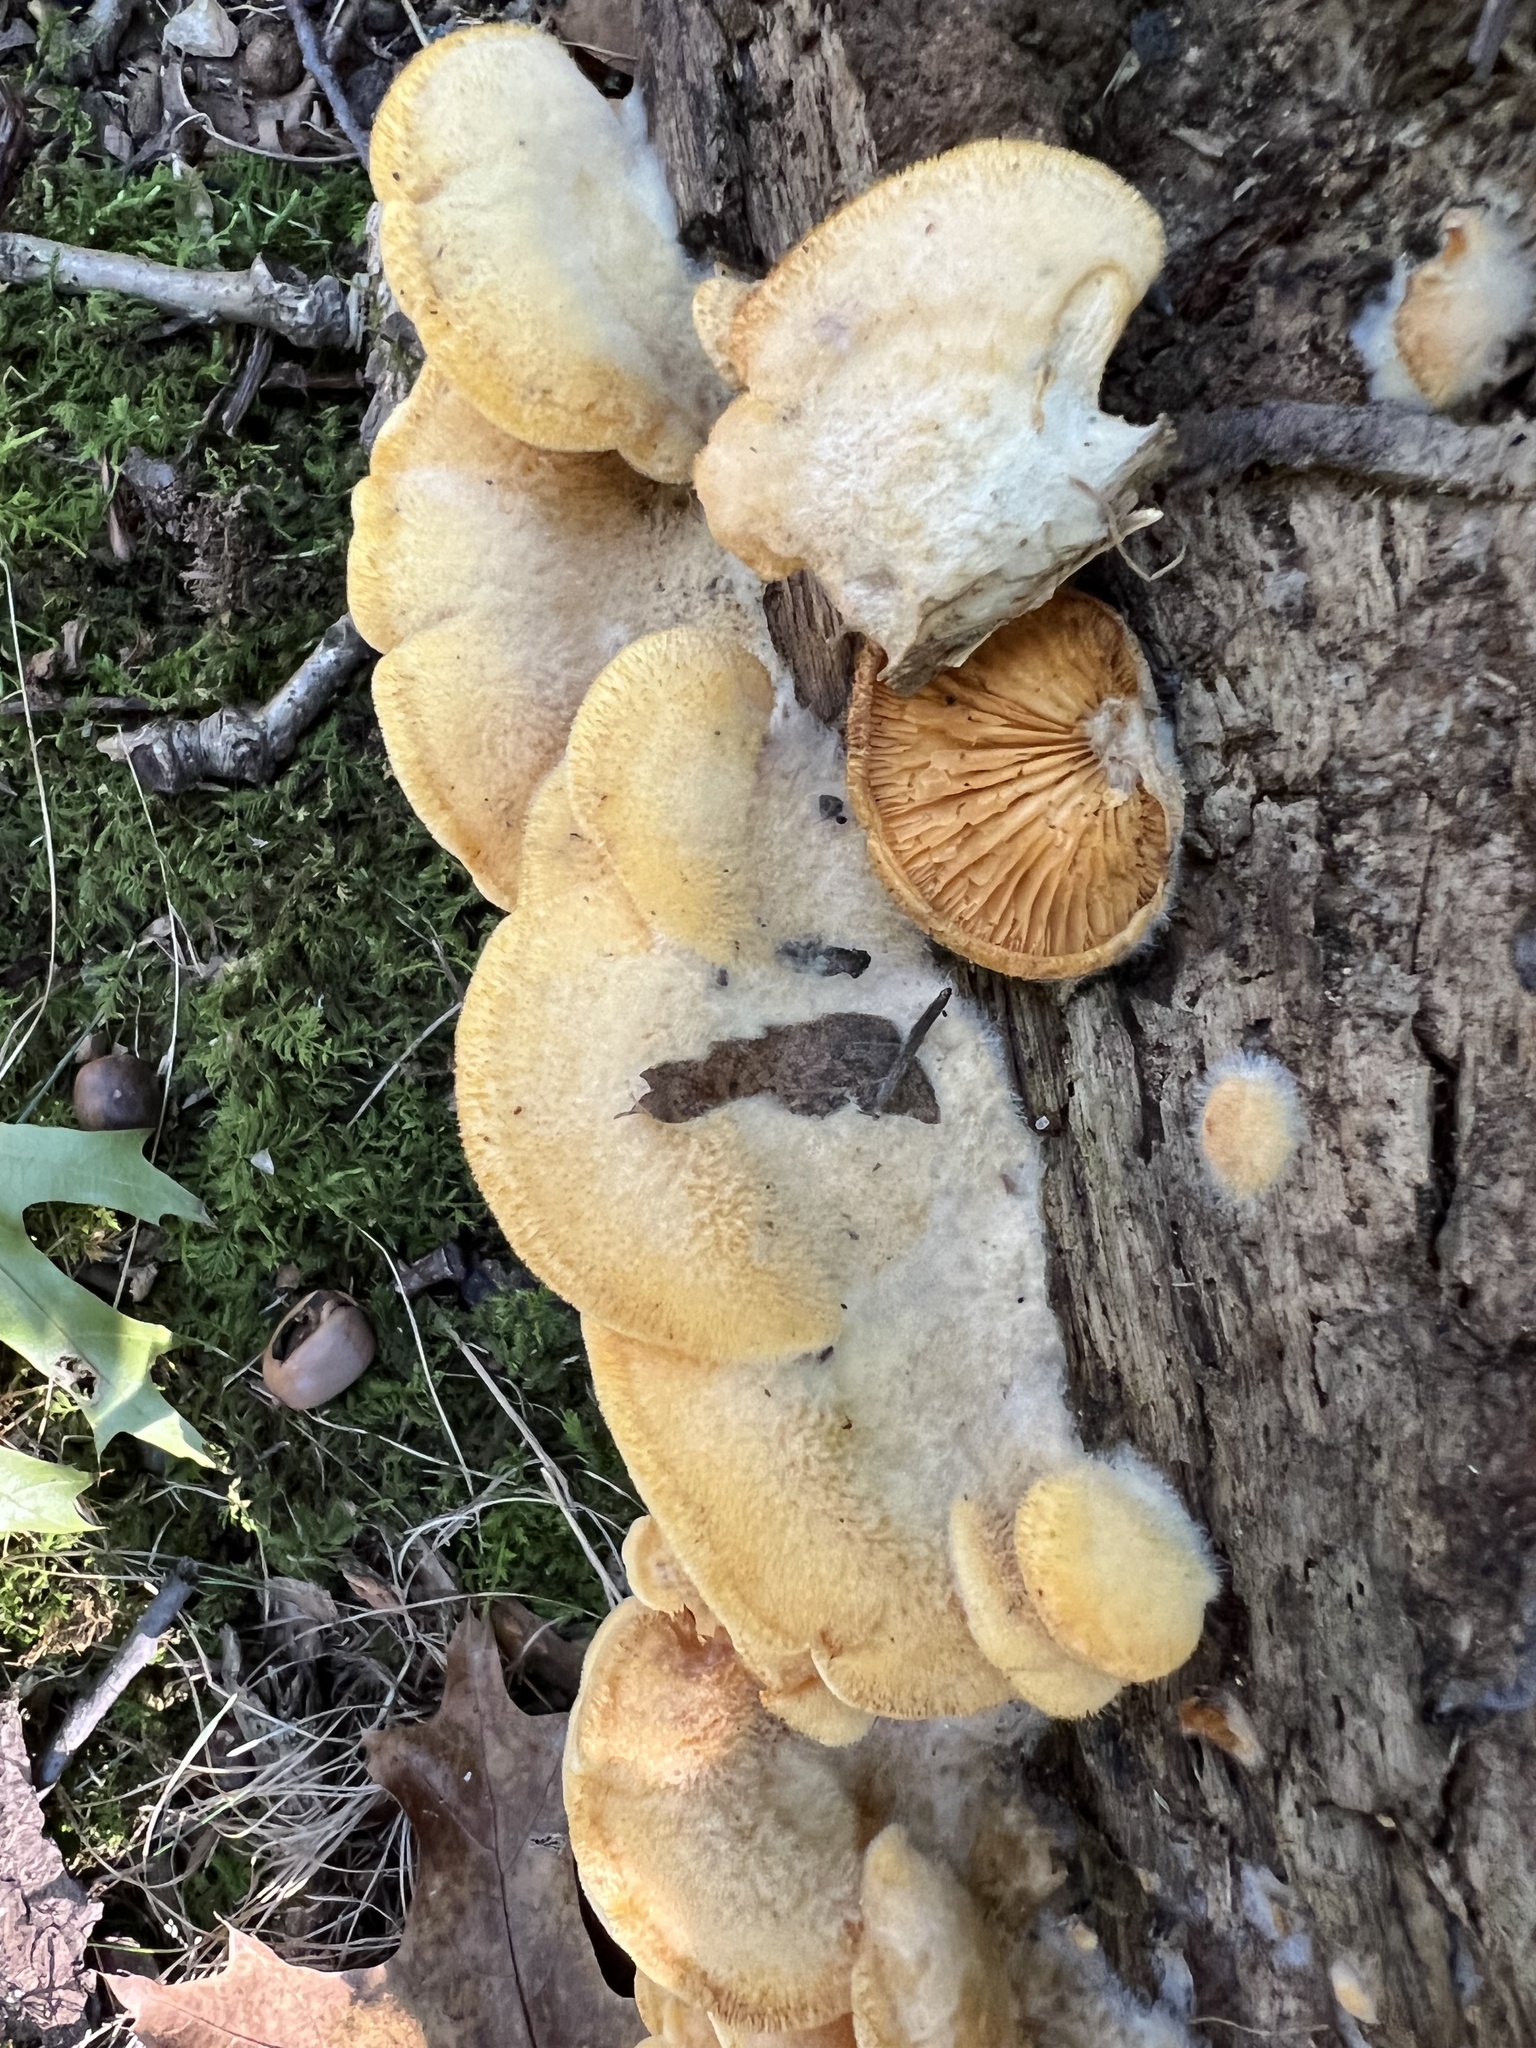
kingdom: Fungi
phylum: Basidiomycota
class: Agaricomycetes
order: Agaricales
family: Phyllotopsidaceae
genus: Phyllotopsis
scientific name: Phyllotopsis nidulans
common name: Orange mock oyster
